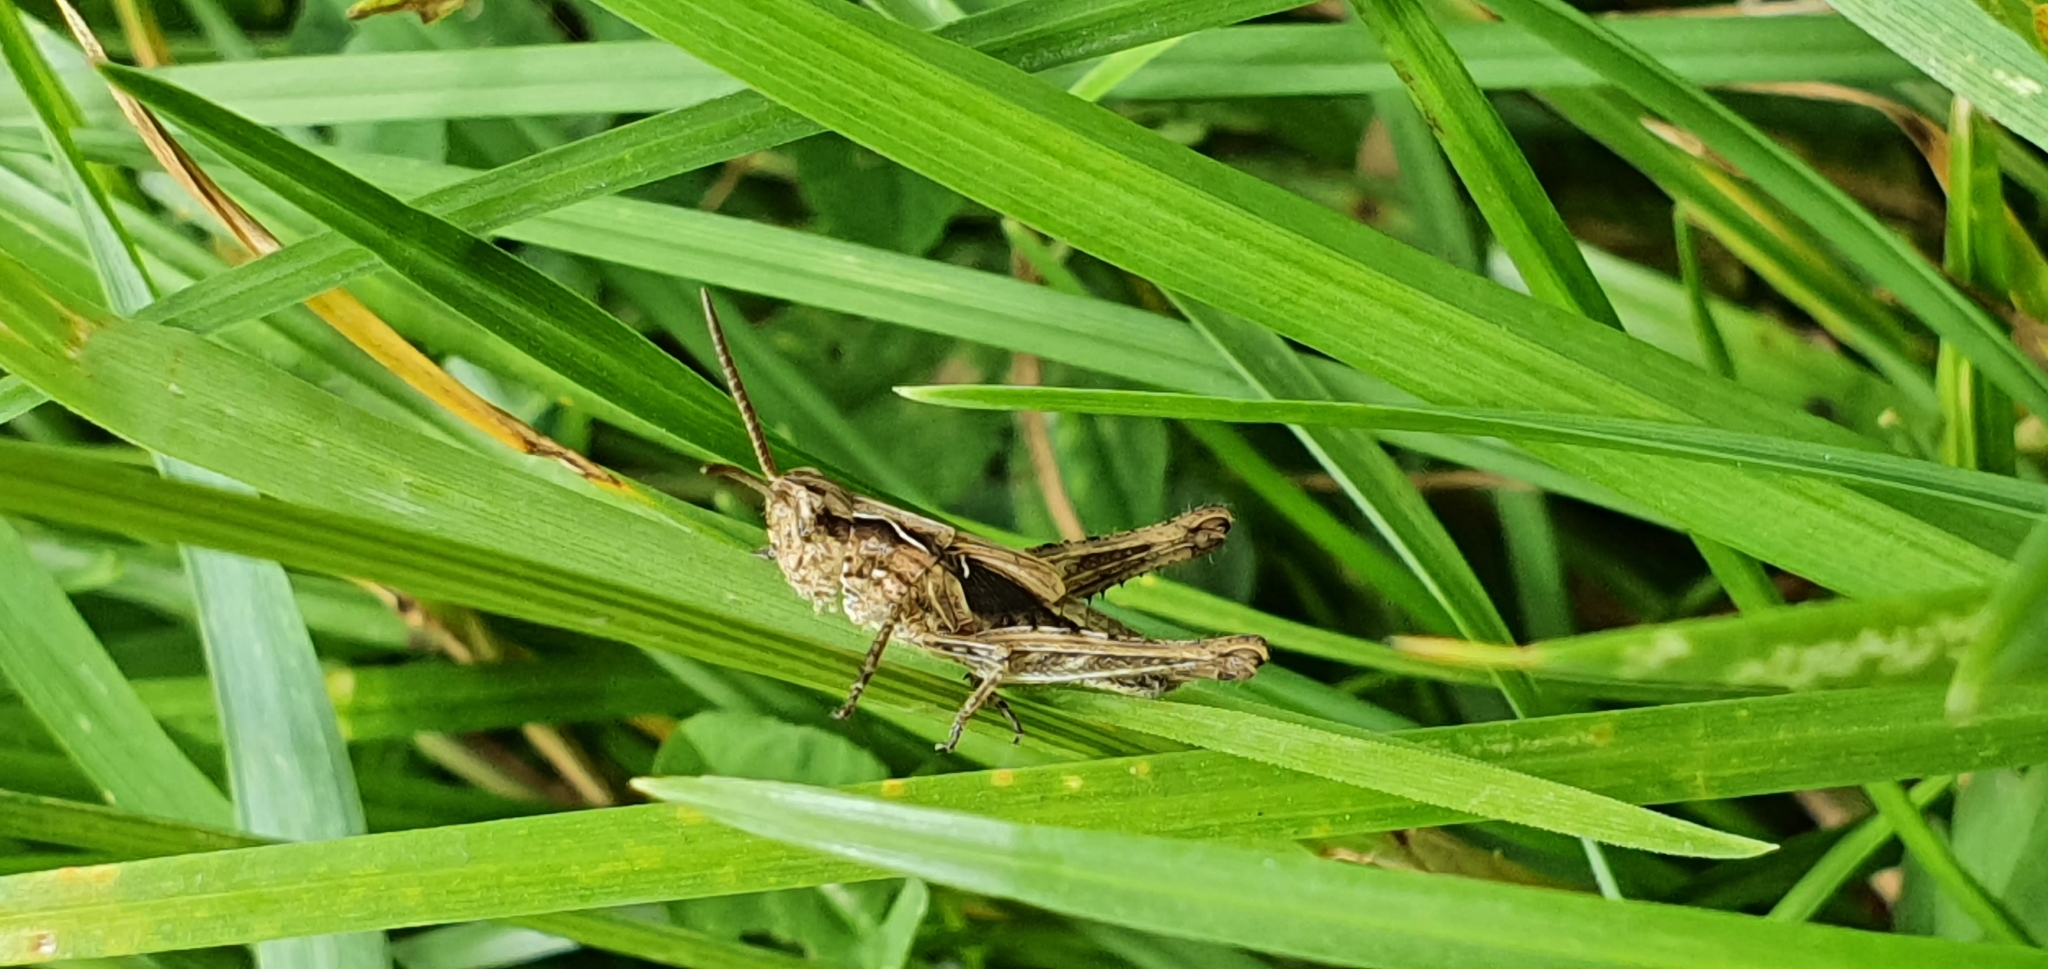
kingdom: Animalia
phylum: Arthropoda
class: Insecta
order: Orthoptera
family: Acrididae
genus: Chorthippus
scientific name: Chorthippus brunneus
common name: Field grasshopper
